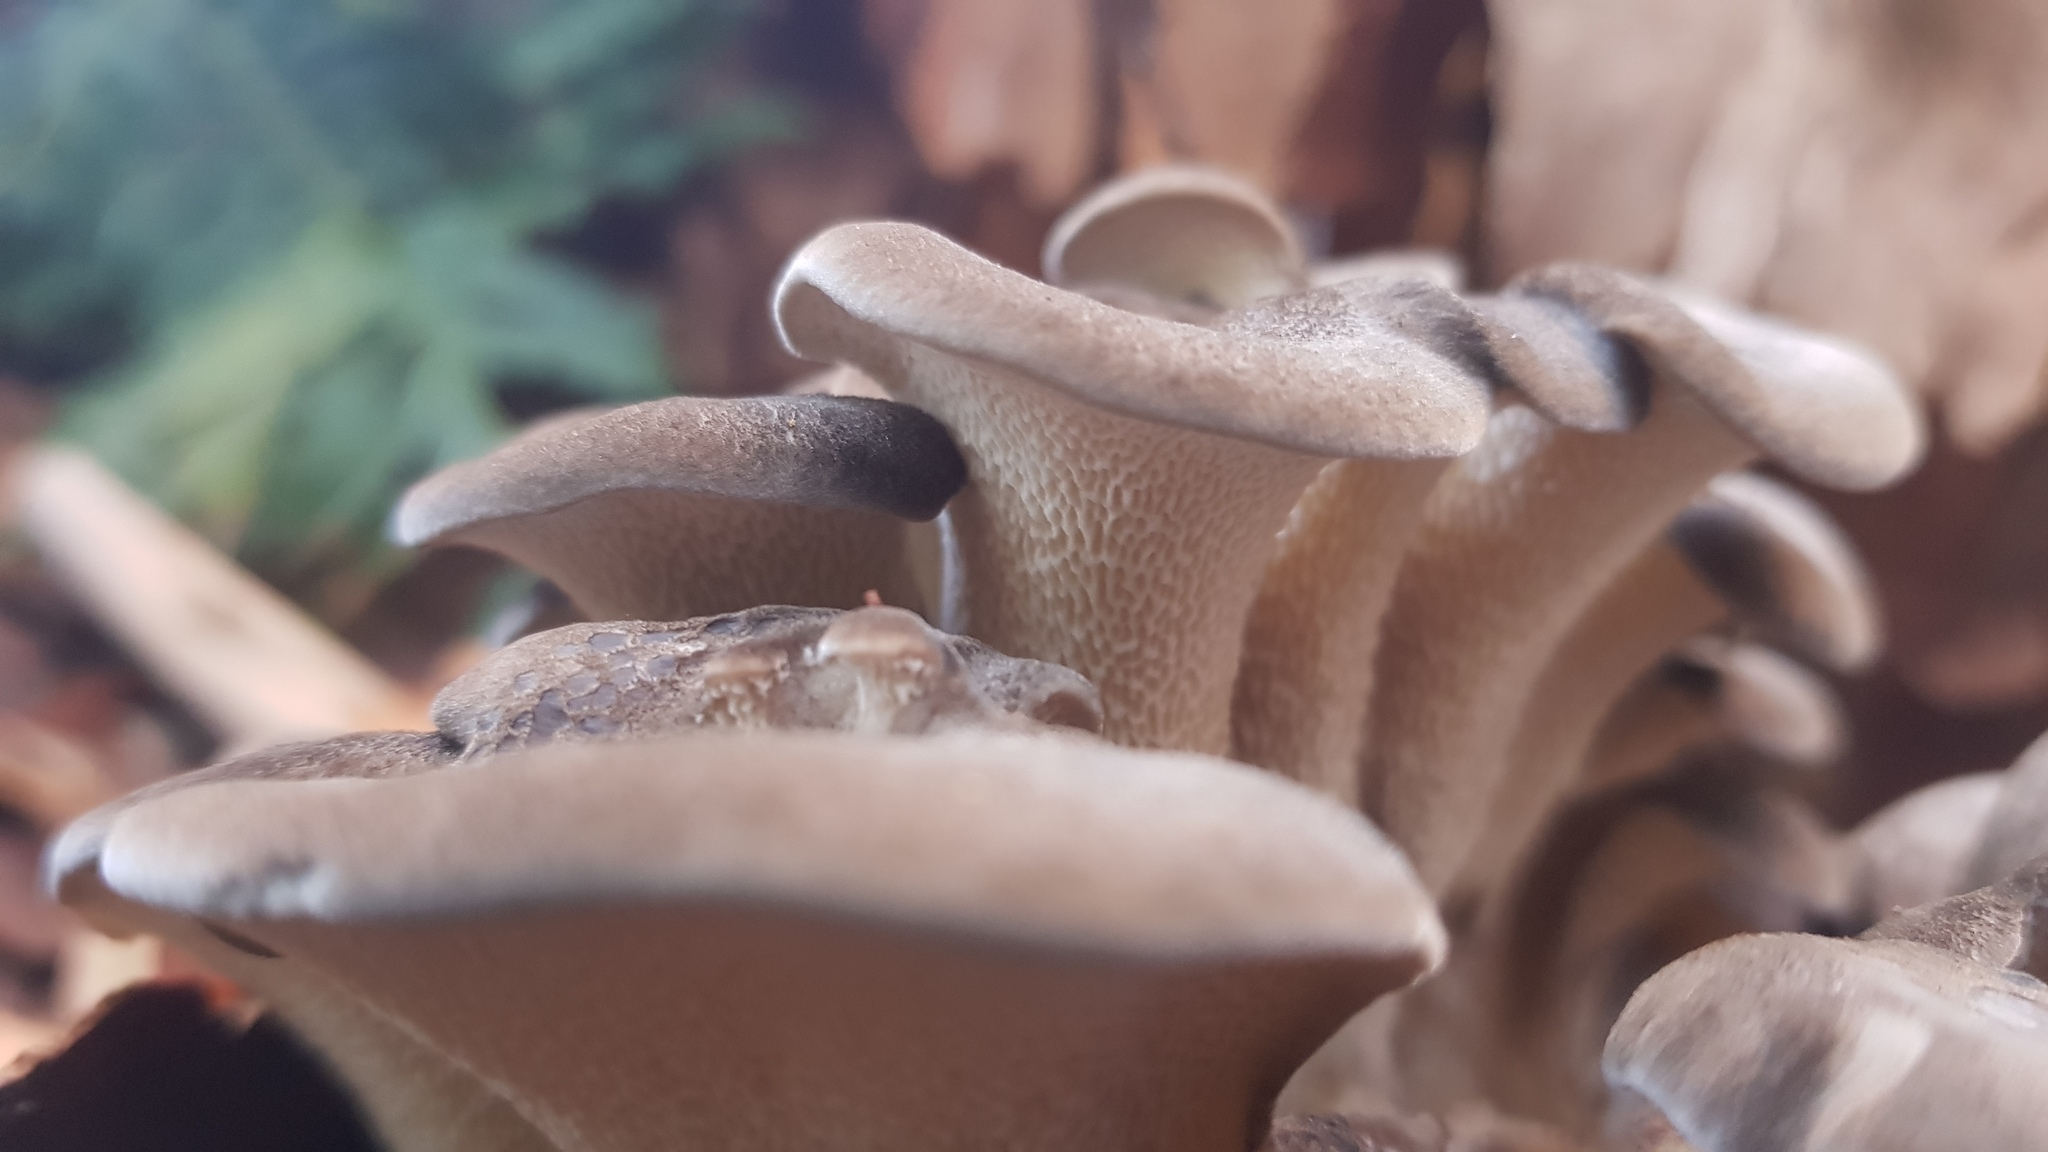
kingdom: Fungi
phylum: Basidiomycota
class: Agaricomycetes
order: Polyporales
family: Grifolaceae
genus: Grifola
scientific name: Grifola colensoi
